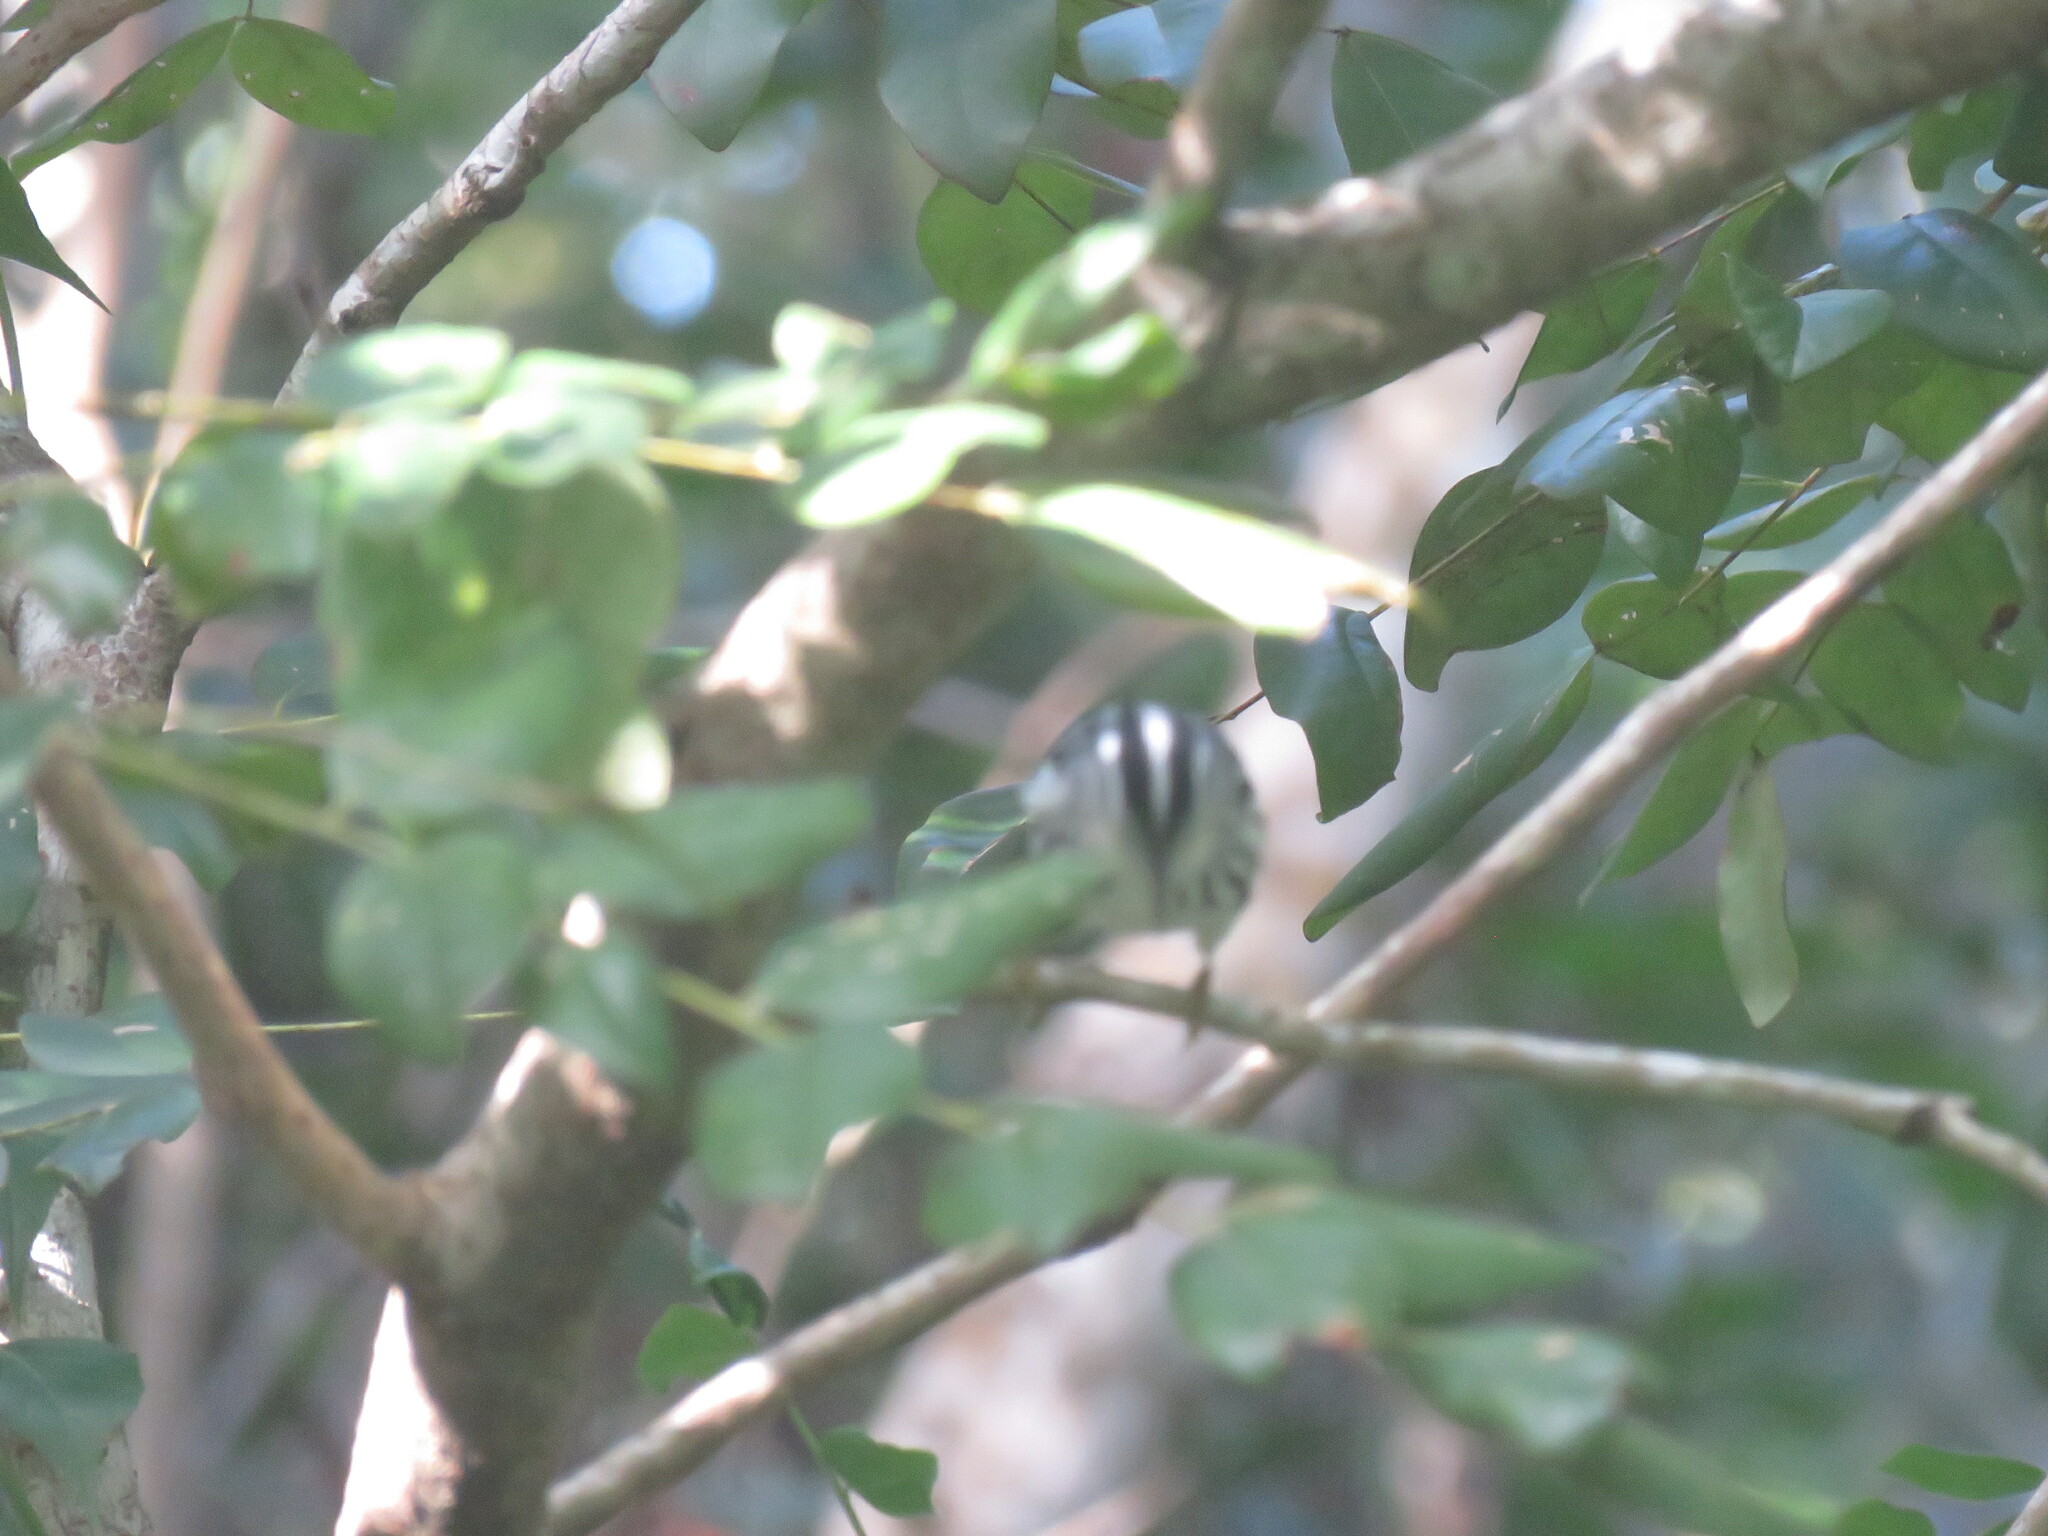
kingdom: Animalia
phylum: Chordata
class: Aves
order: Passeriformes
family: Parulidae
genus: Mniotilta
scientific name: Mniotilta varia
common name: Black-and-white warbler
